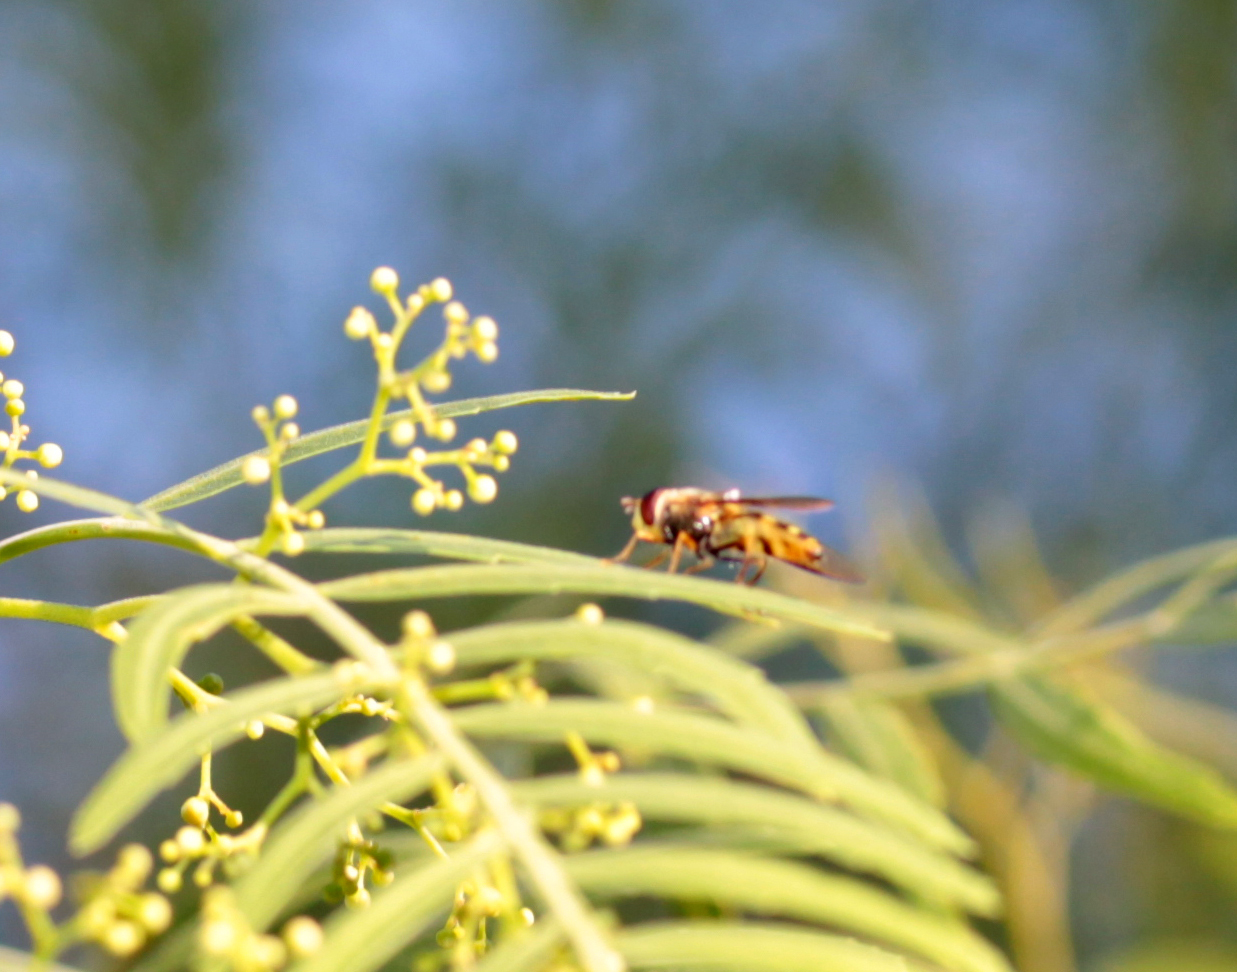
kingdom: Animalia
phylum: Arthropoda
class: Insecta
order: Diptera
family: Syrphidae
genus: Syrphus
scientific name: Syrphus opinator
